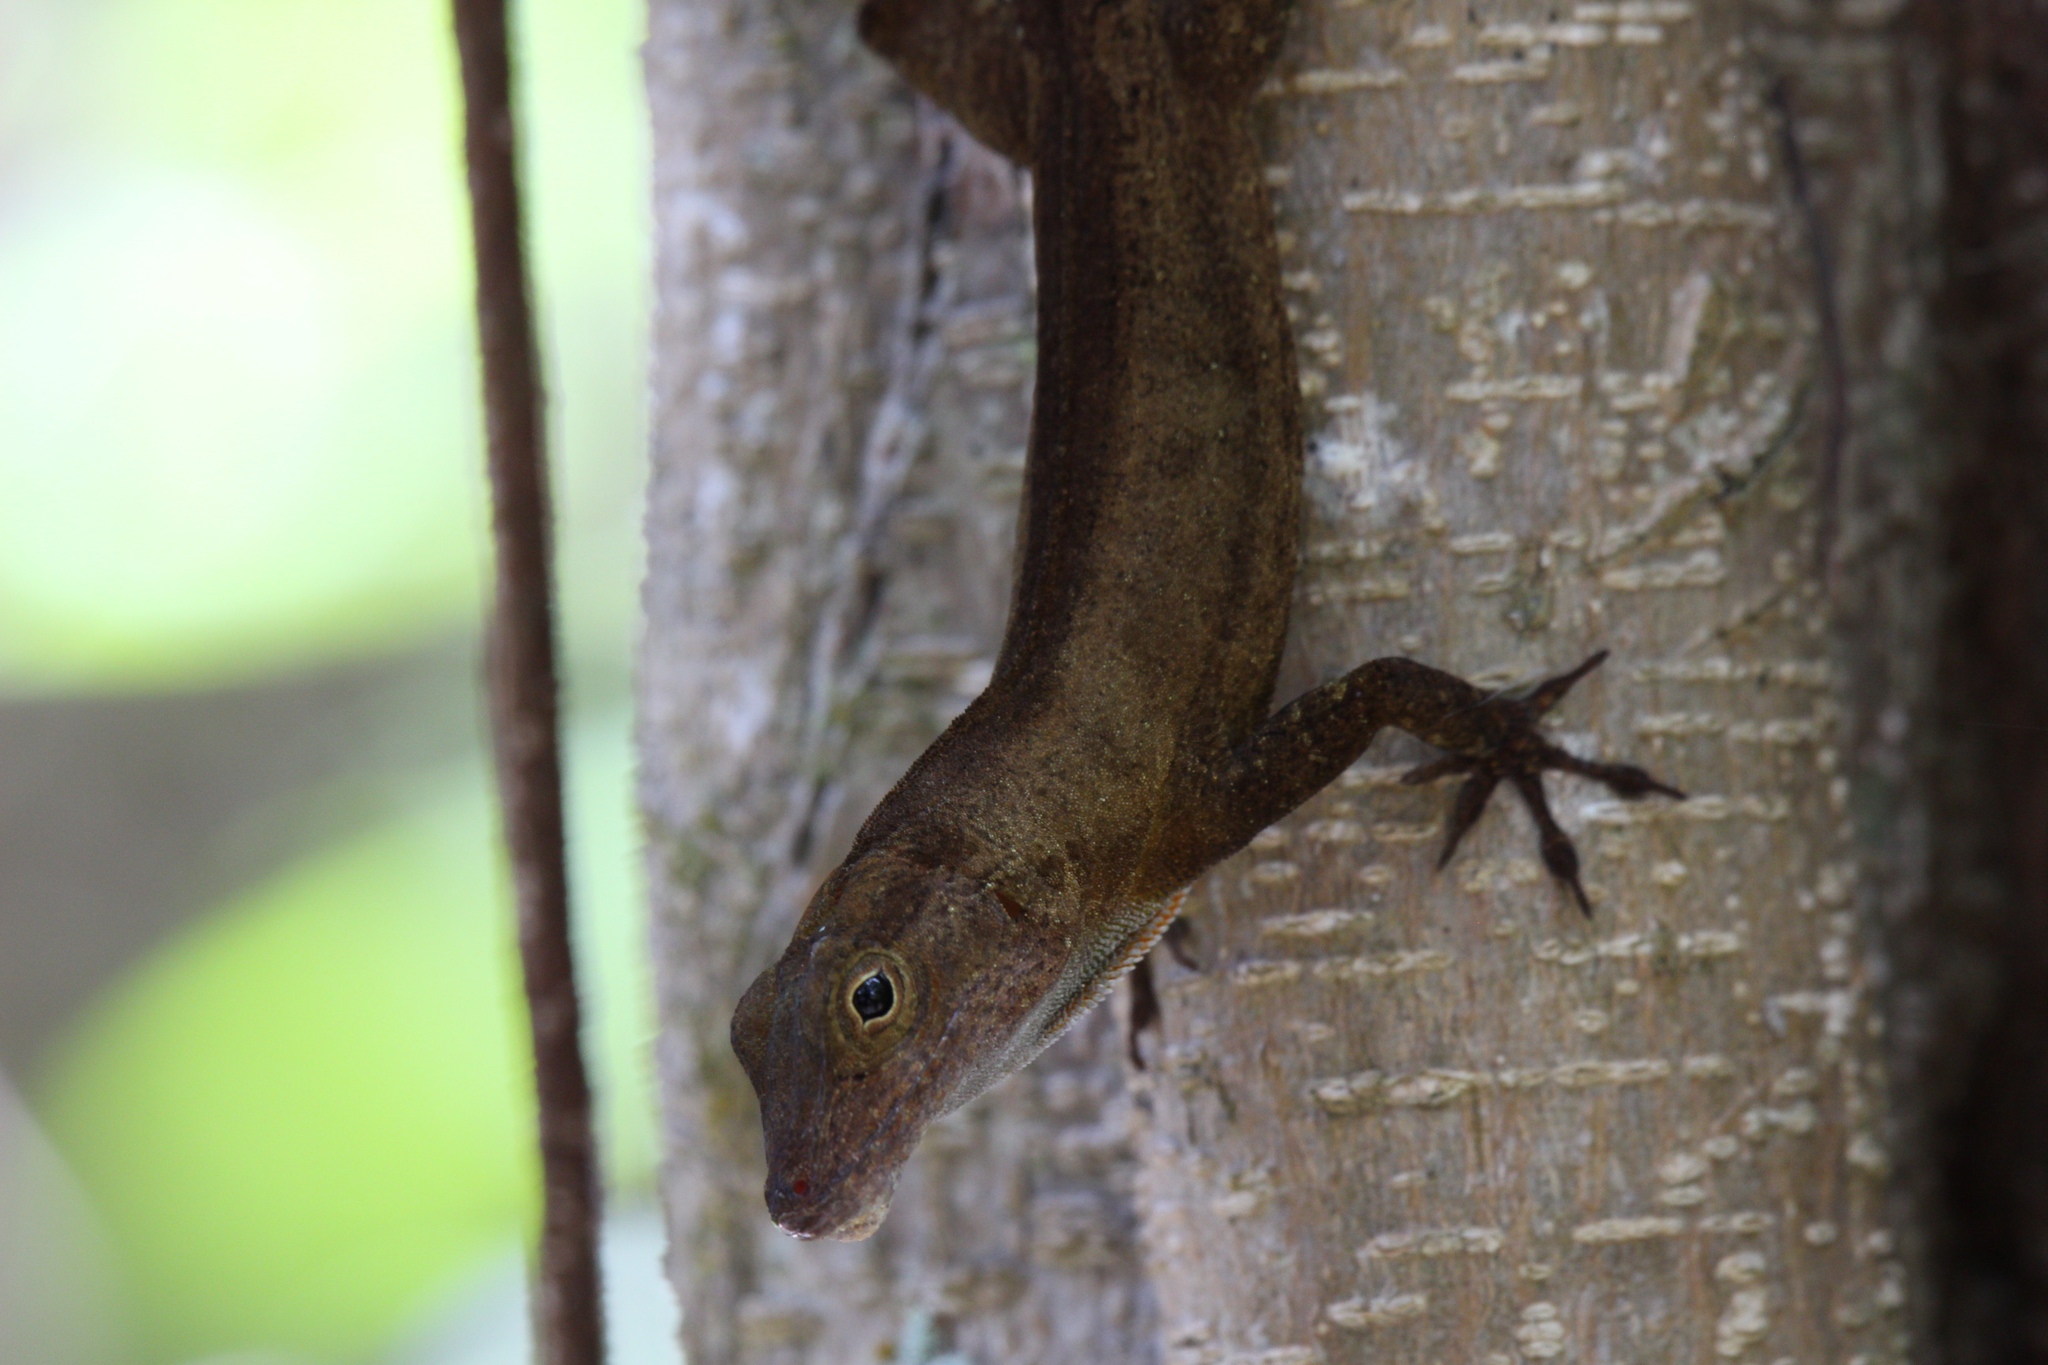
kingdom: Animalia
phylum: Chordata
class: Squamata
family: Dactyloidae
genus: Anolis
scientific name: Anolis cristatellus
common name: Crested anole
